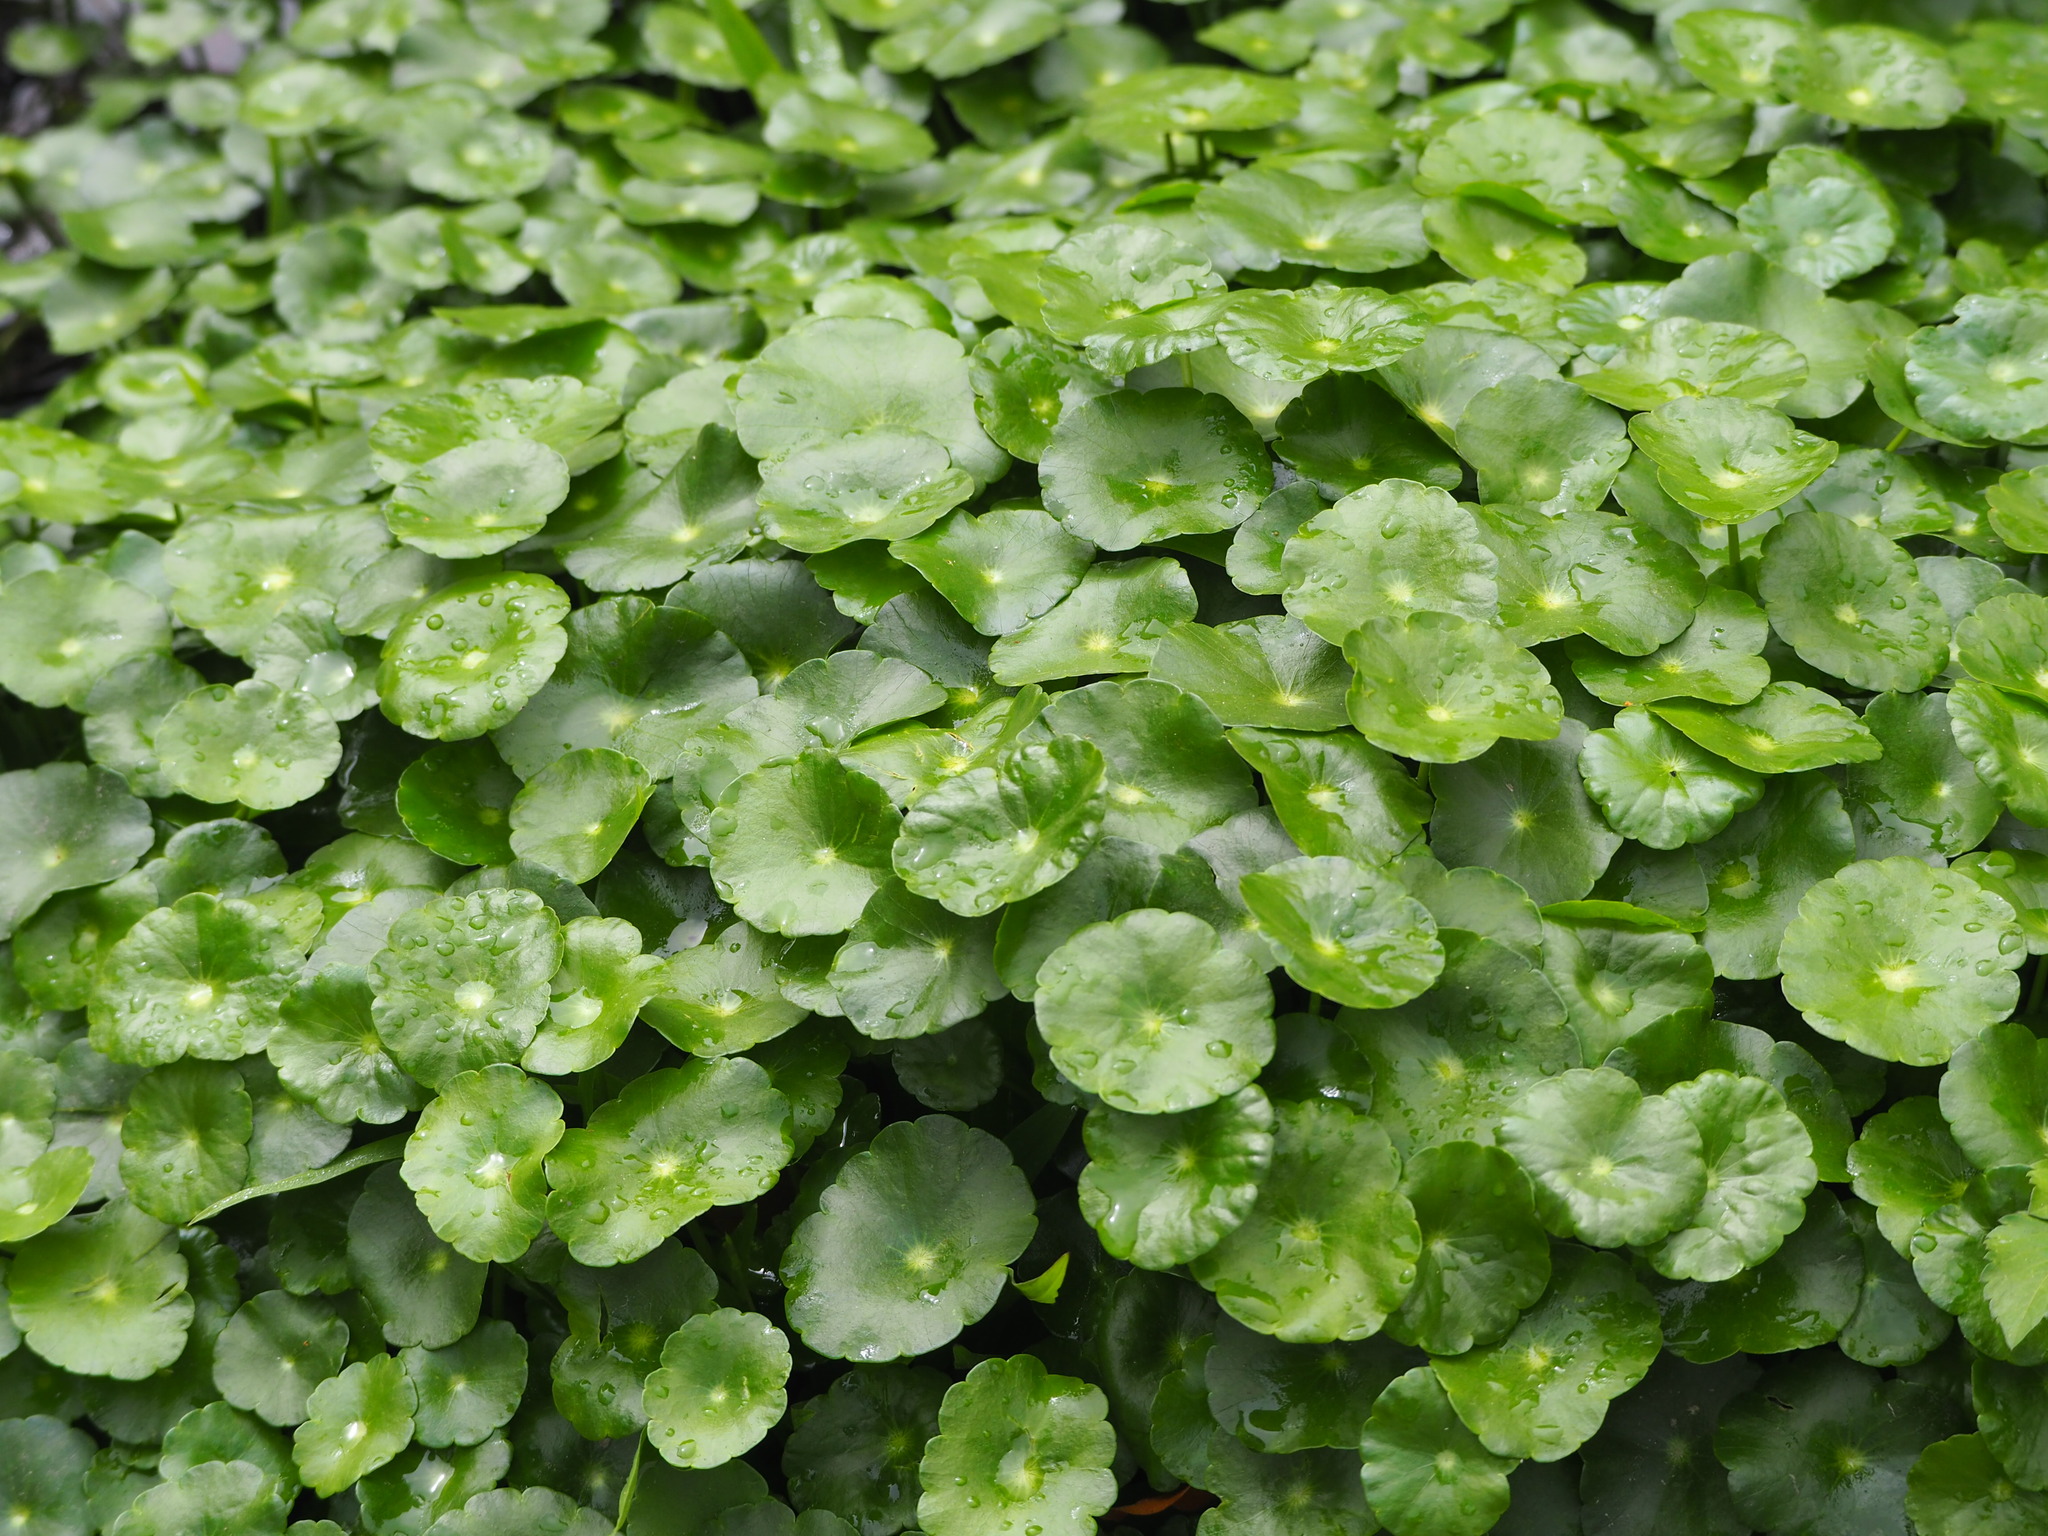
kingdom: Plantae
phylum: Tracheophyta
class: Magnoliopsida
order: Apiales
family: Araliaceae
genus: Hydrocotyle
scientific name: Hydrocotyle verticillata
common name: Whorled marshpennywort
